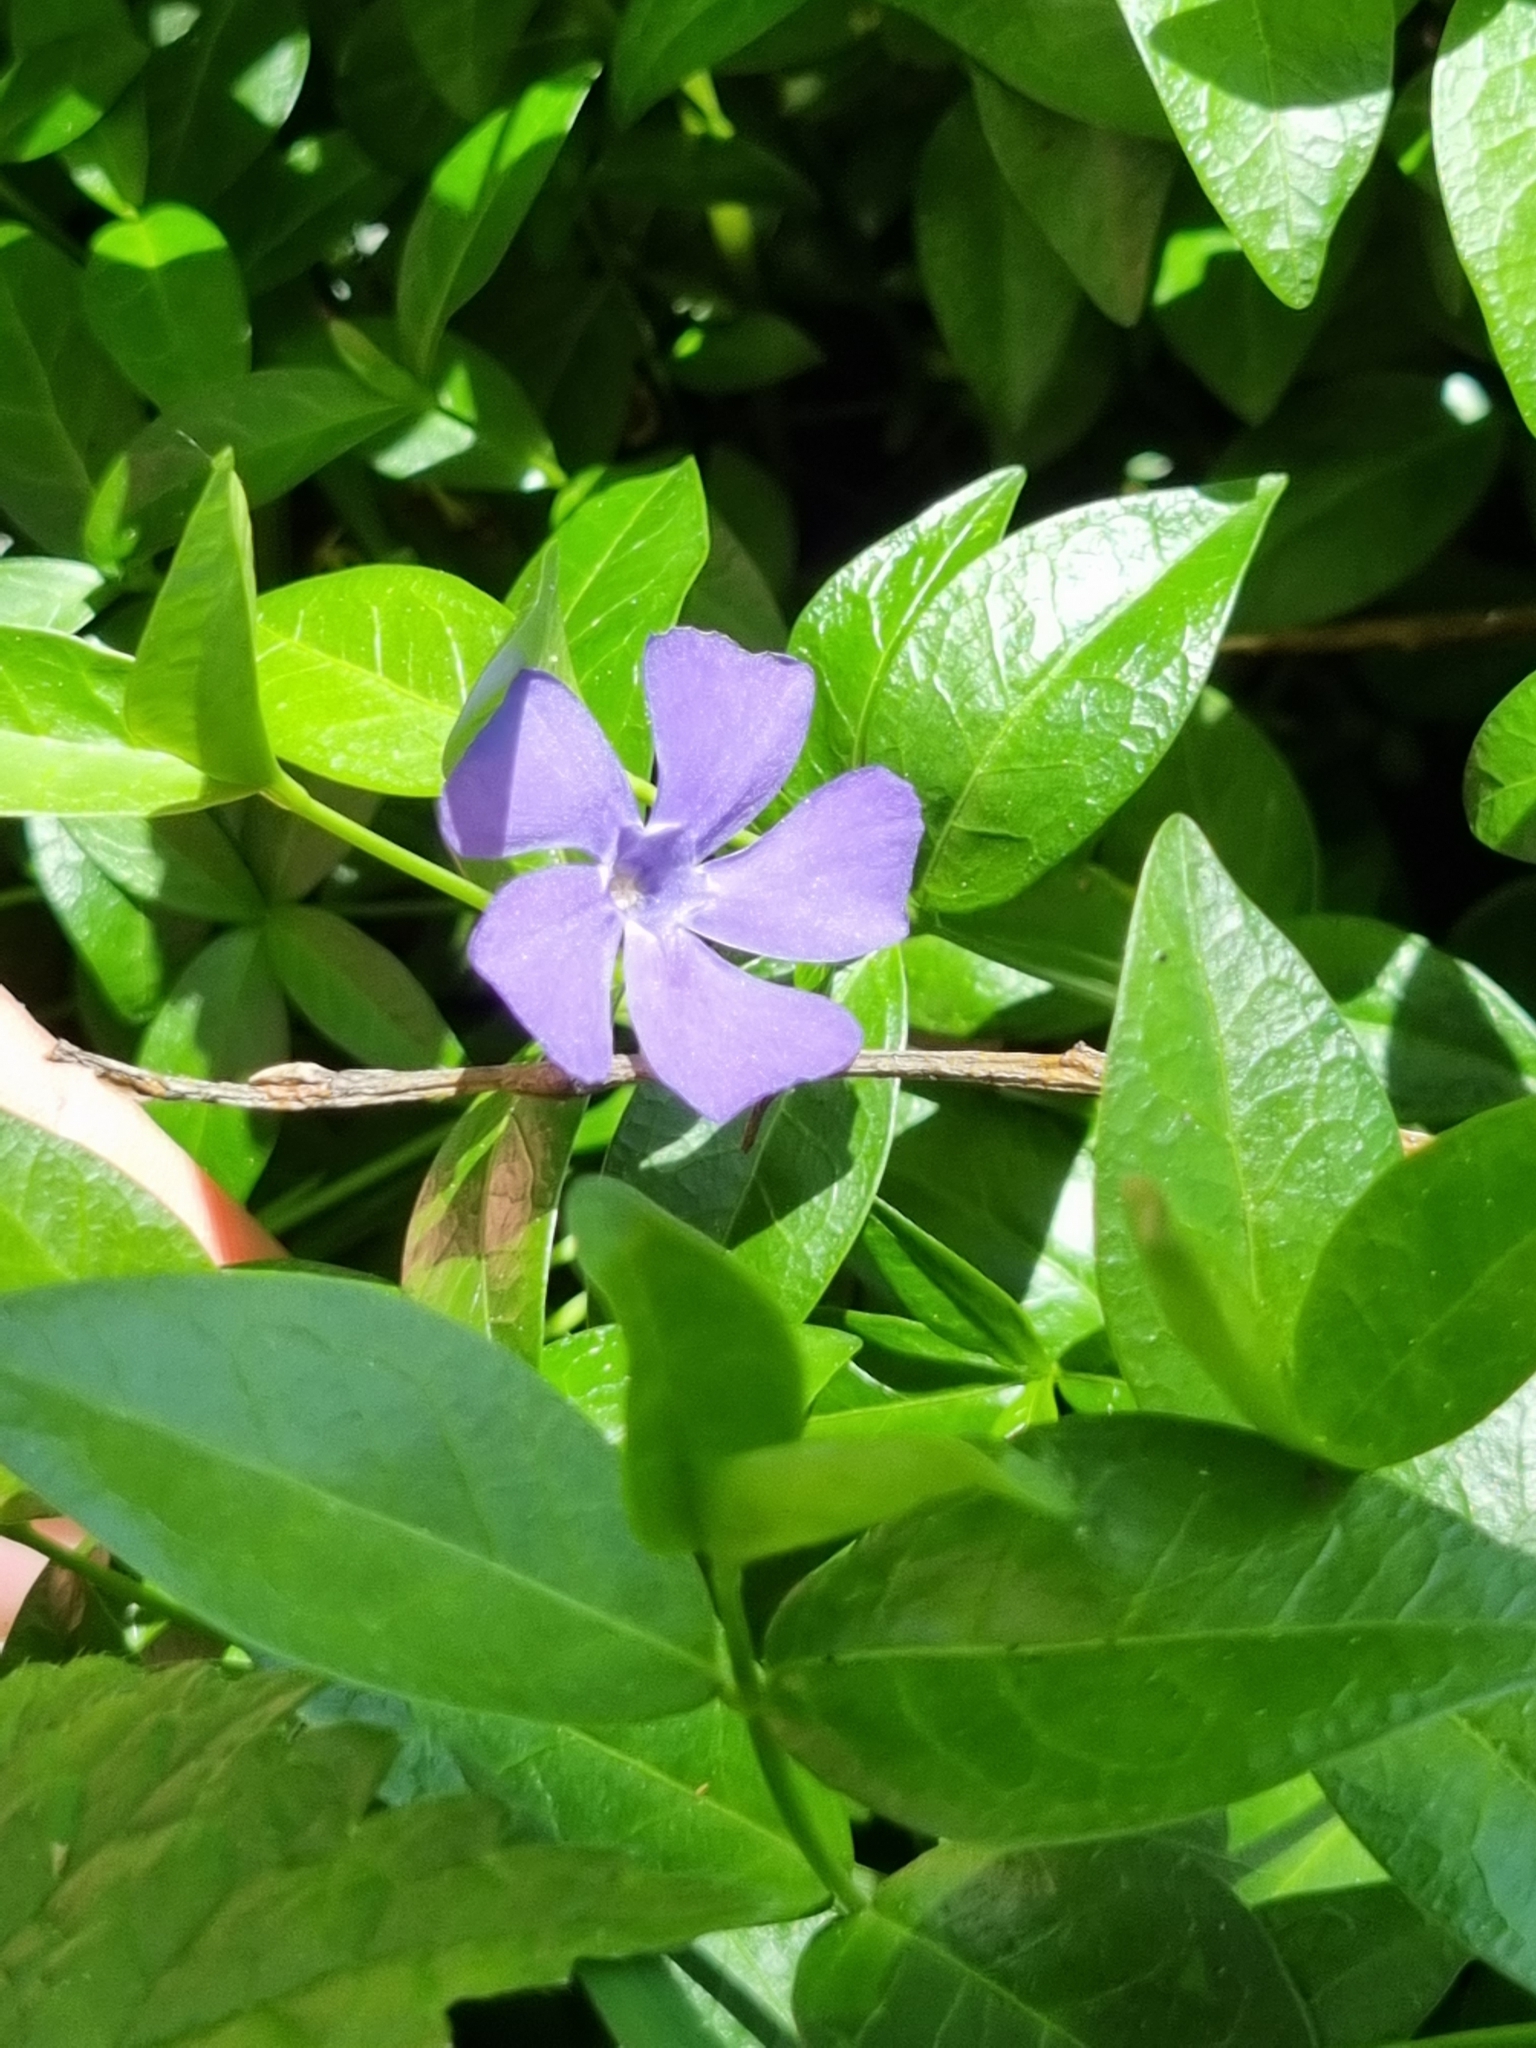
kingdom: Plantae
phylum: Tracheophyta
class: Magnoliopsida
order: Gentianales
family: Apocynaceae
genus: Vinca
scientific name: Vinca minor
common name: Lesser periwinkle
